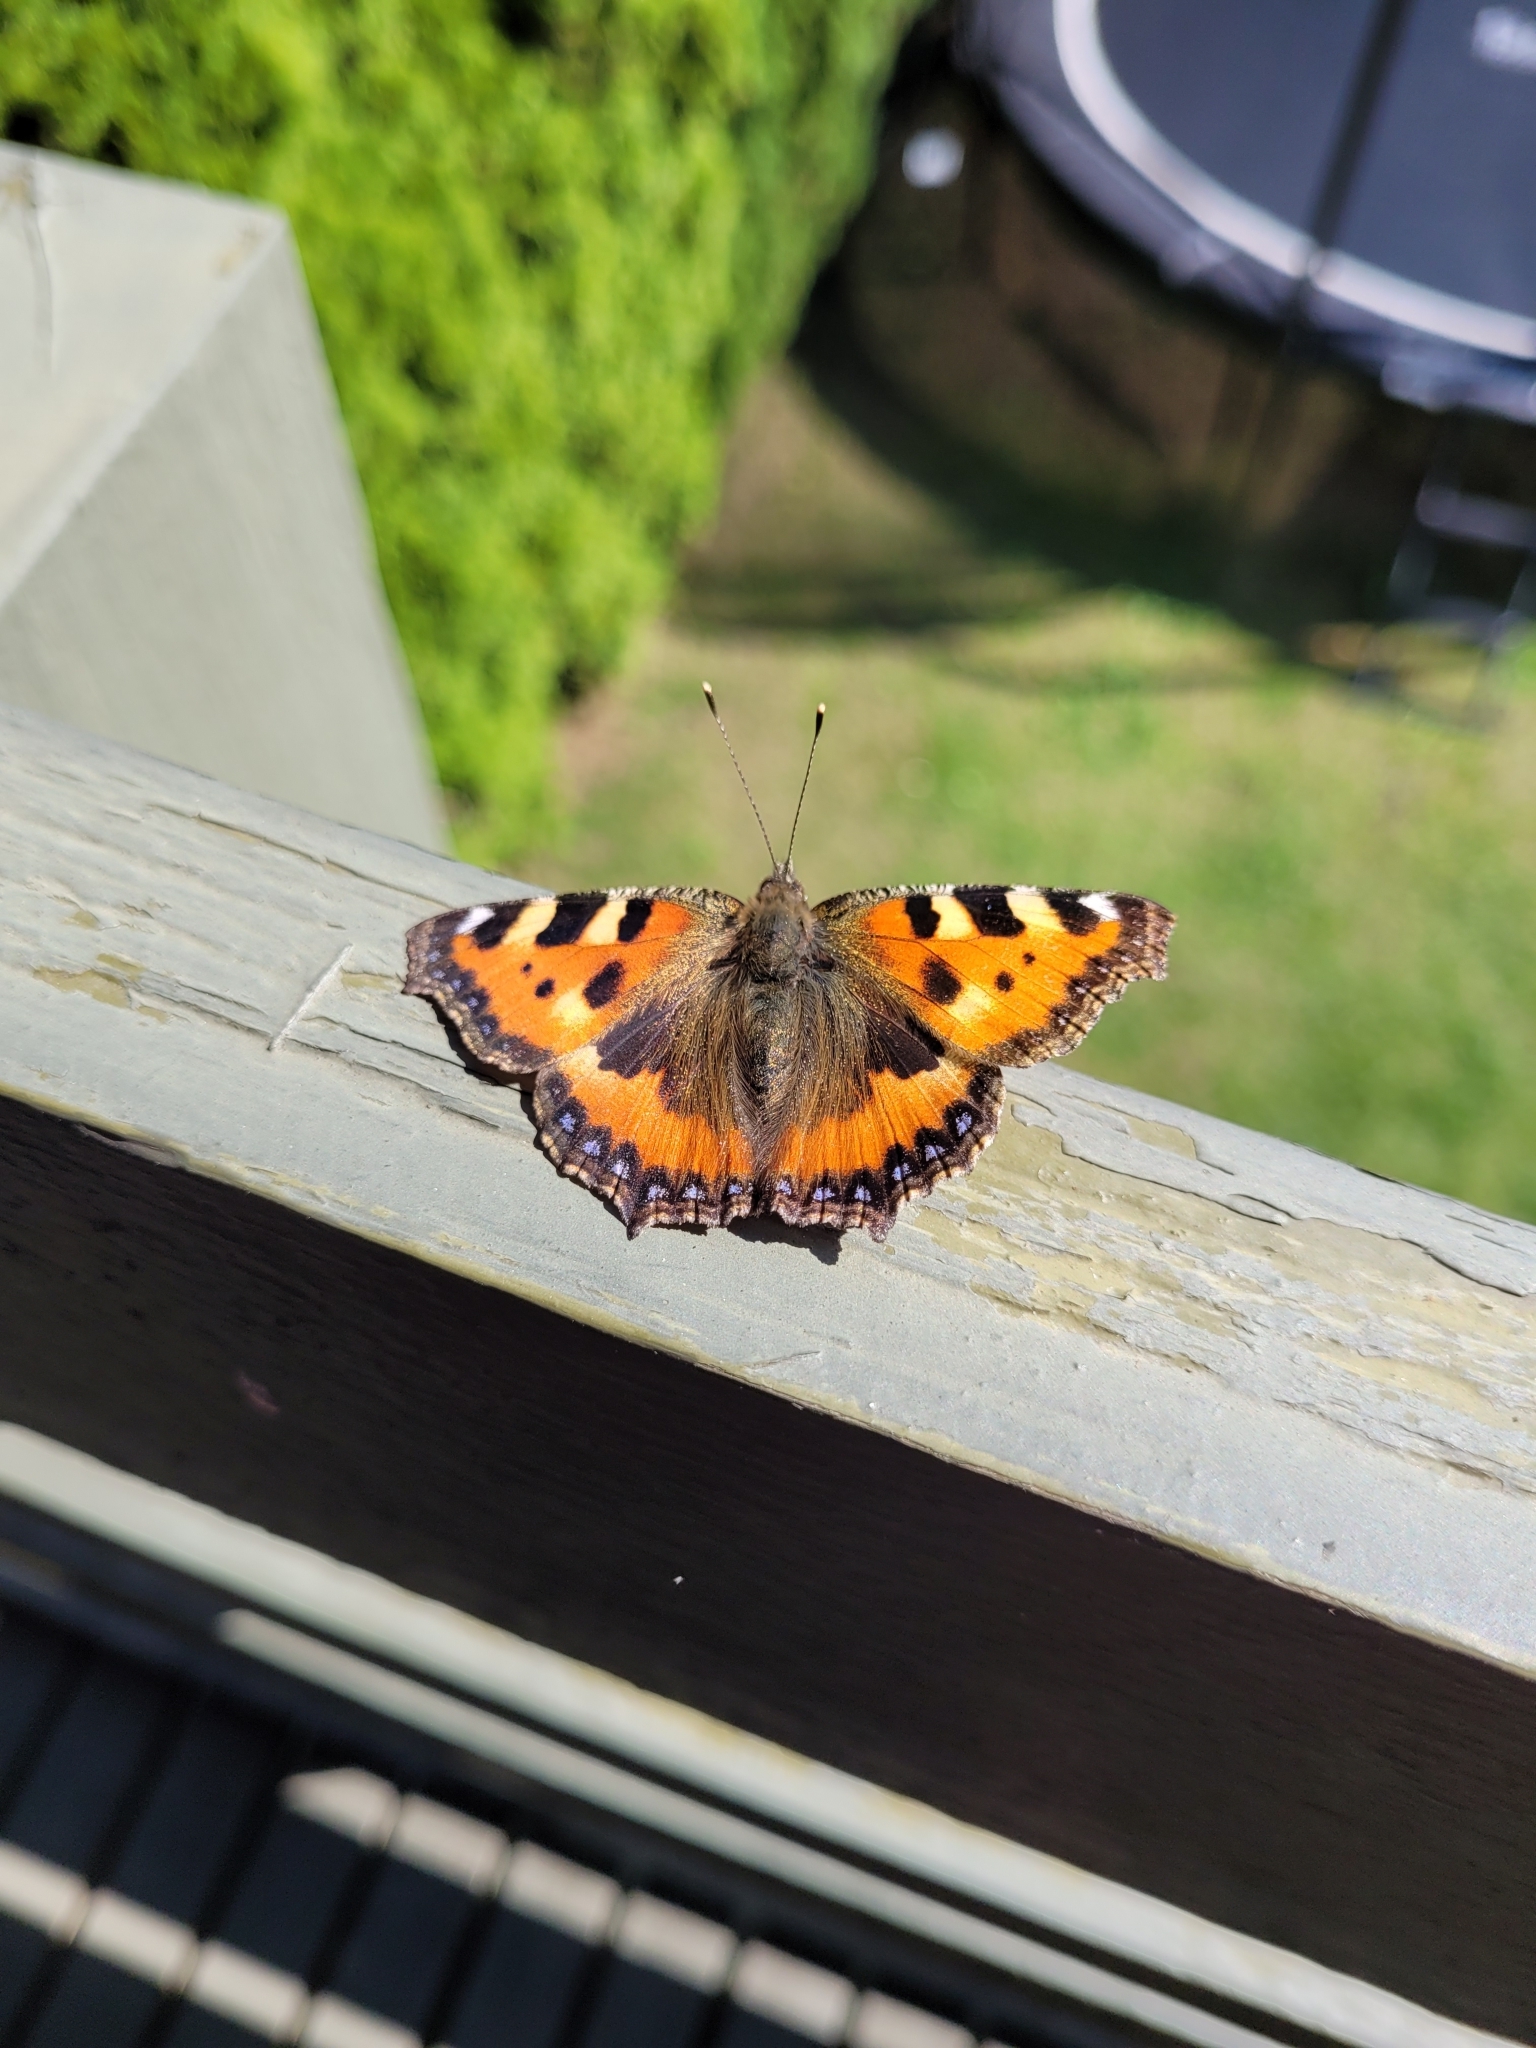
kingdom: Animalia
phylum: Arthropoda
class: Insecta
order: Lepidoptera
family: Nymphalidae
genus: Aglais
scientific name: Aglais urticae
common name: Small tortoiseshell
